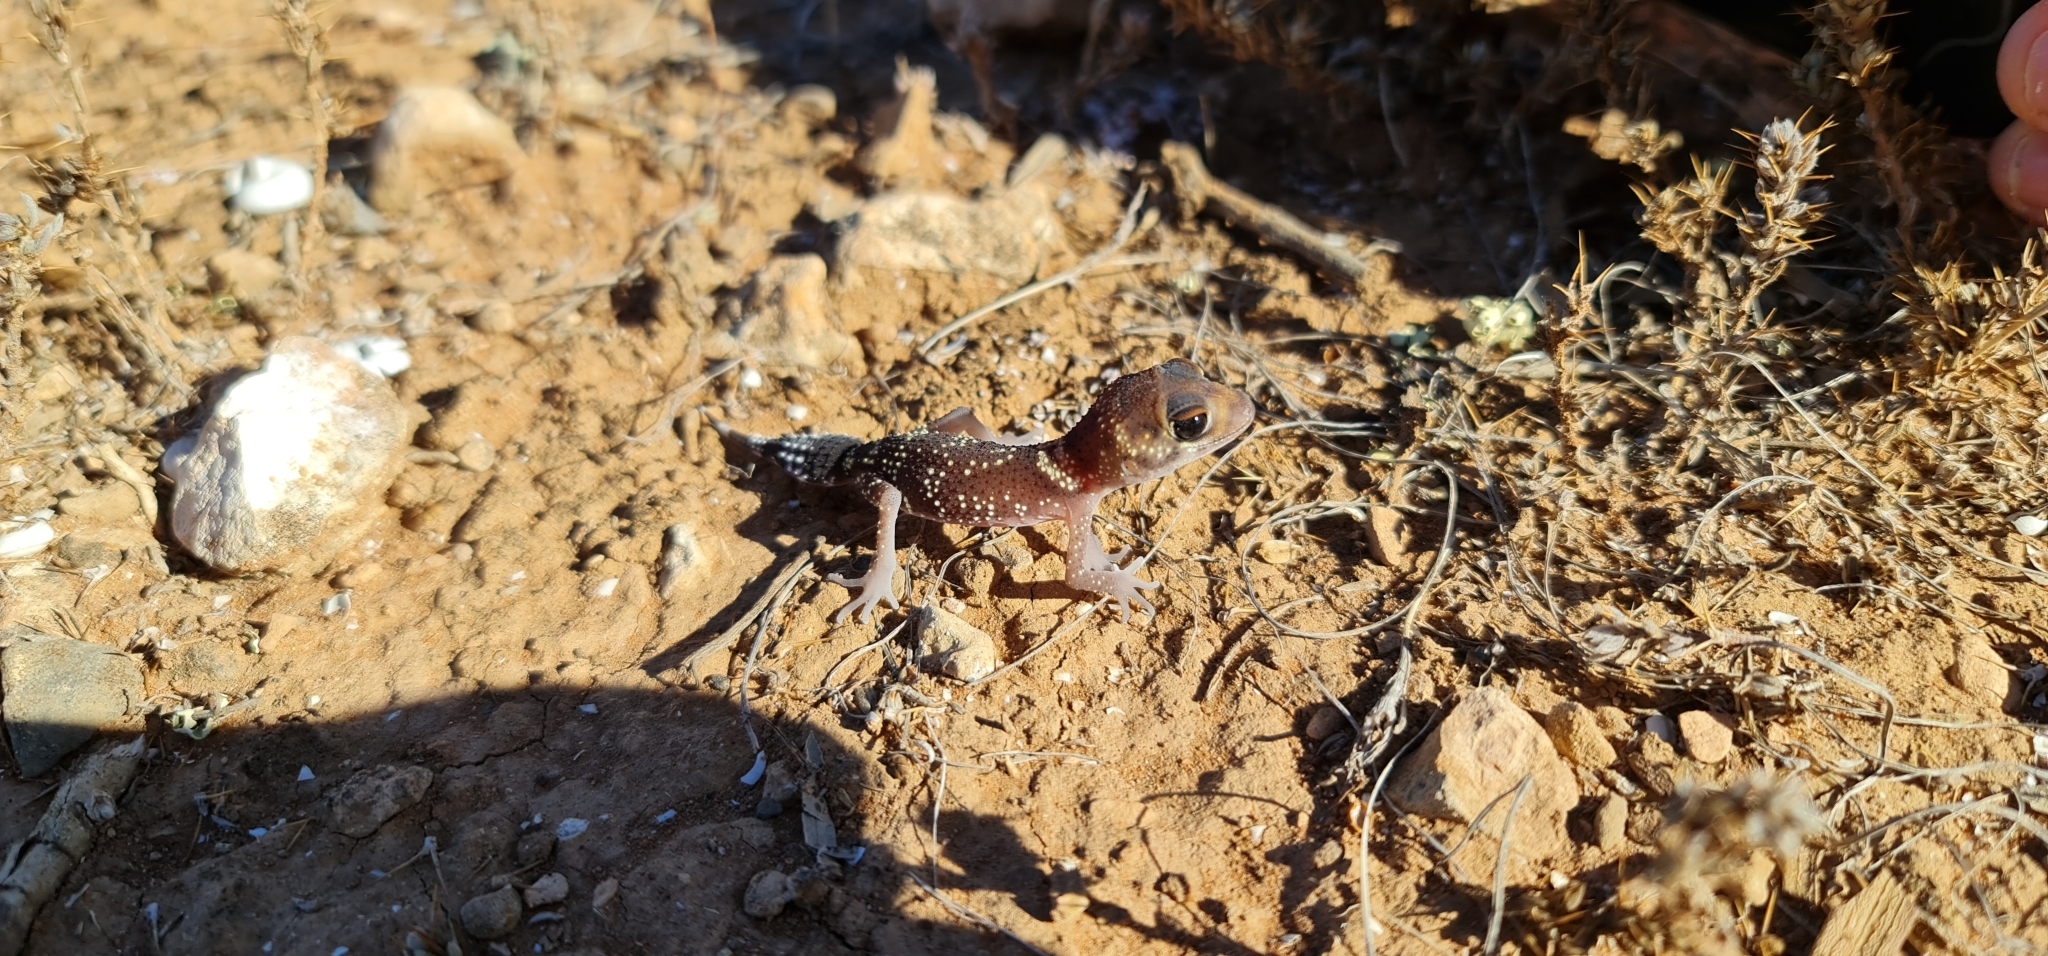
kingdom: Animalia
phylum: Chordata
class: Squamata
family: Carphodactylidae
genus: Underwoodisaurus
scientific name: Underwoodisaurus milii
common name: Barking gecko
